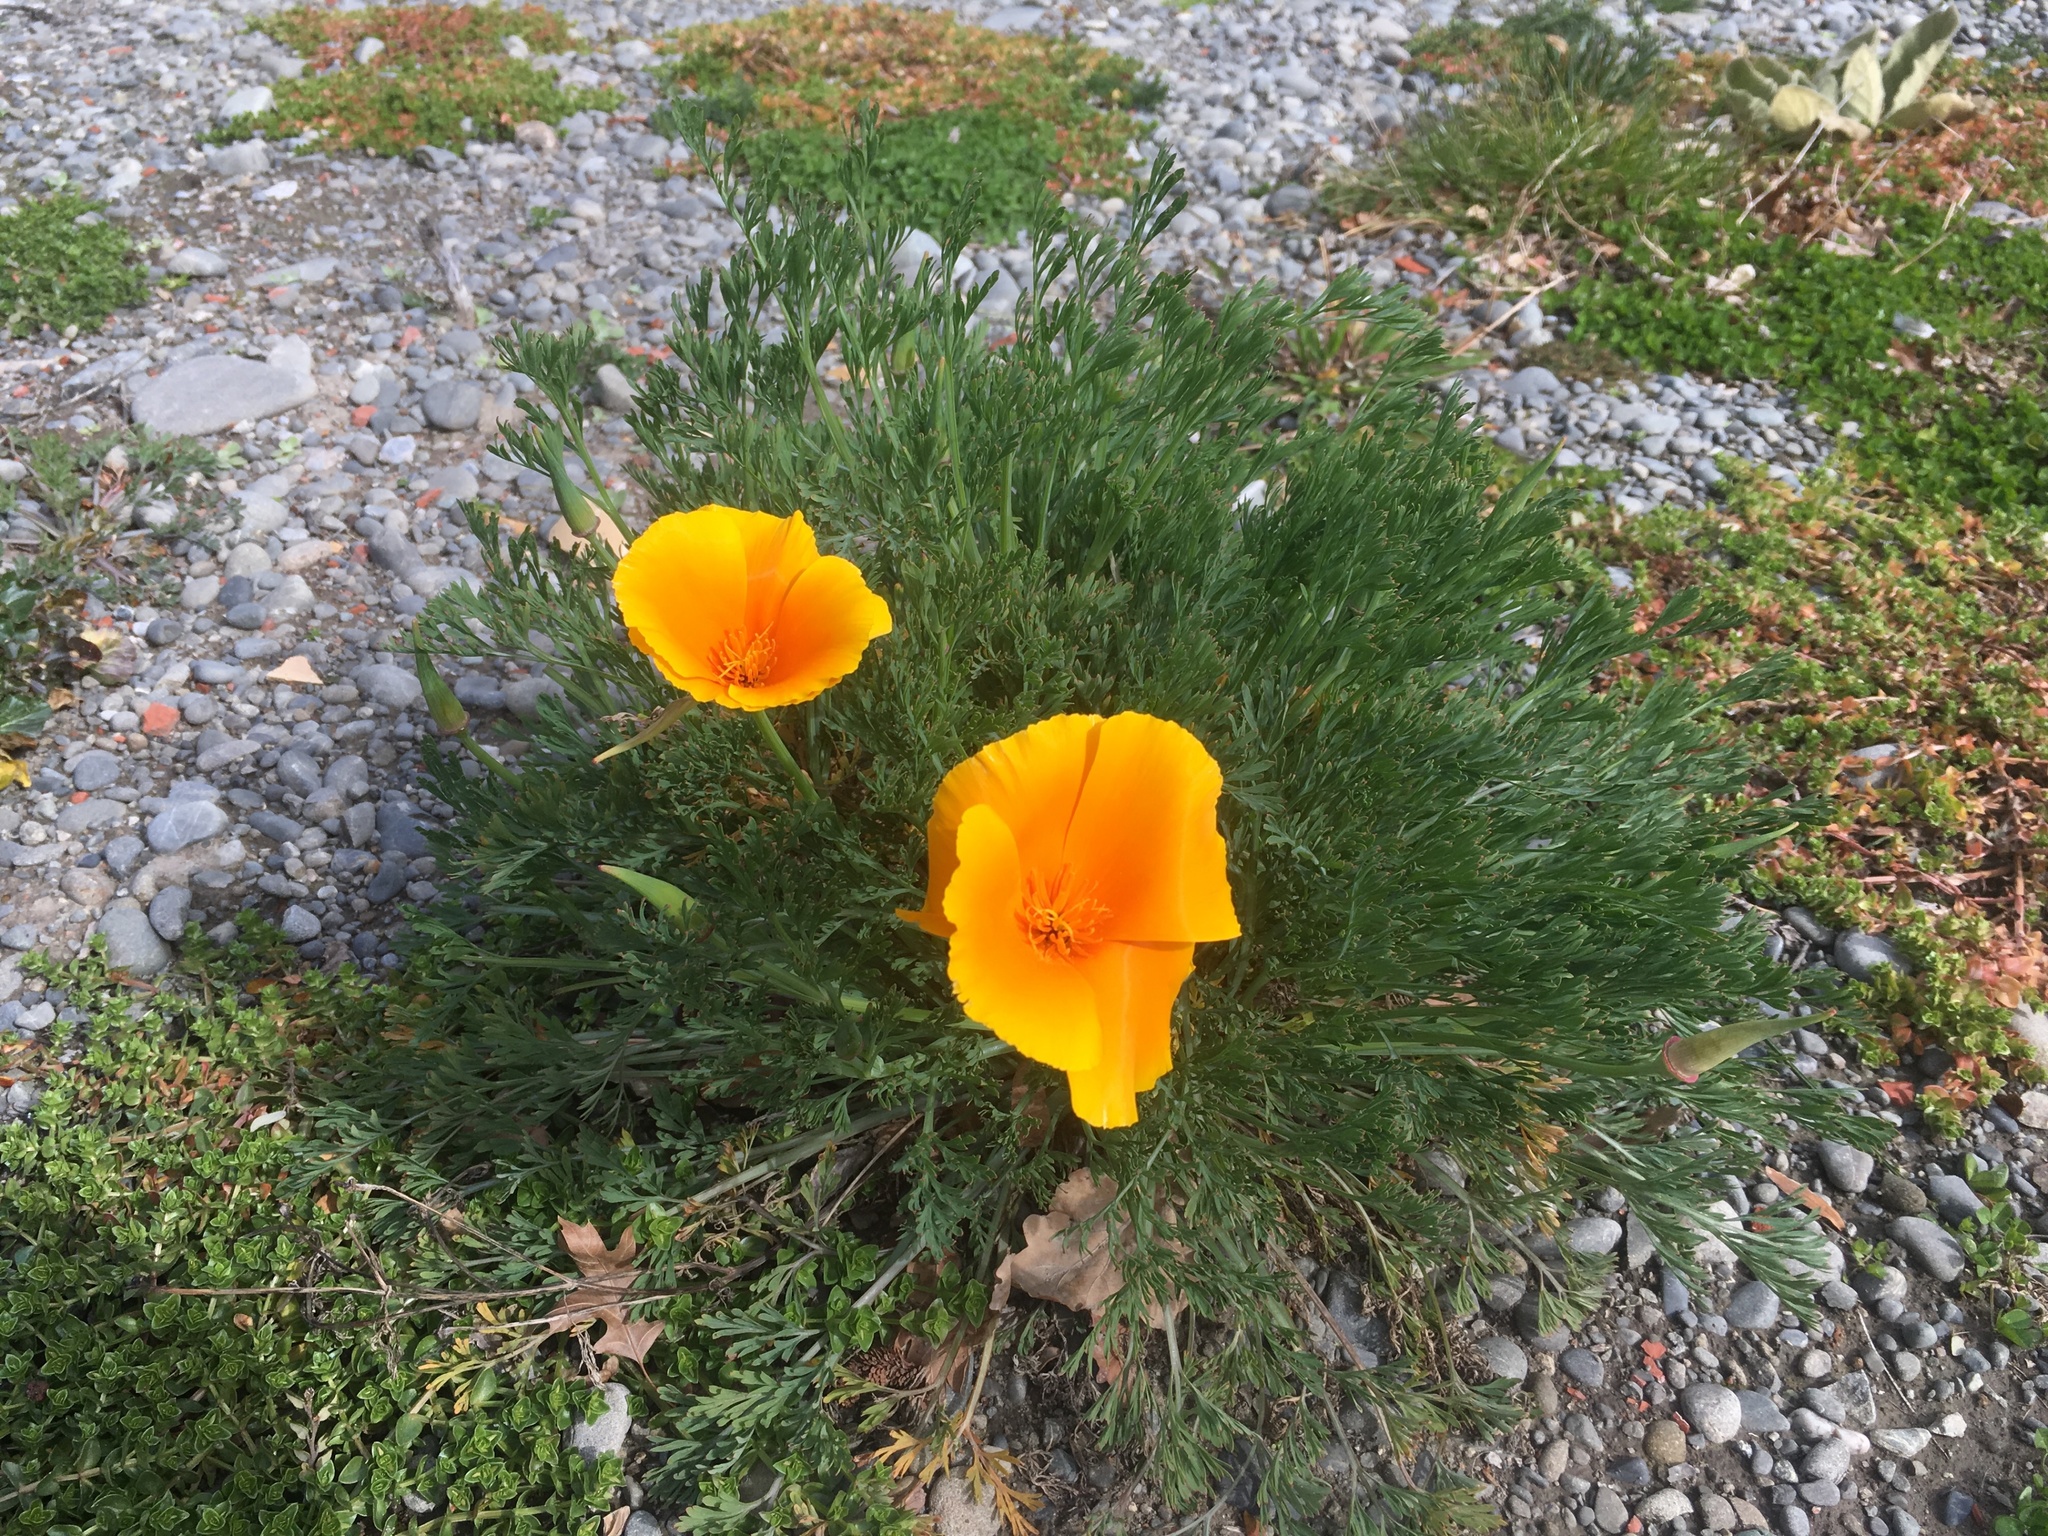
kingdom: Plantae
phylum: Tracheophyta
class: Magnoliopsida
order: Ranunculales
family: Papaveraceae
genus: Eschscholzia
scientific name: Eschscholzia californica
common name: California poppy
